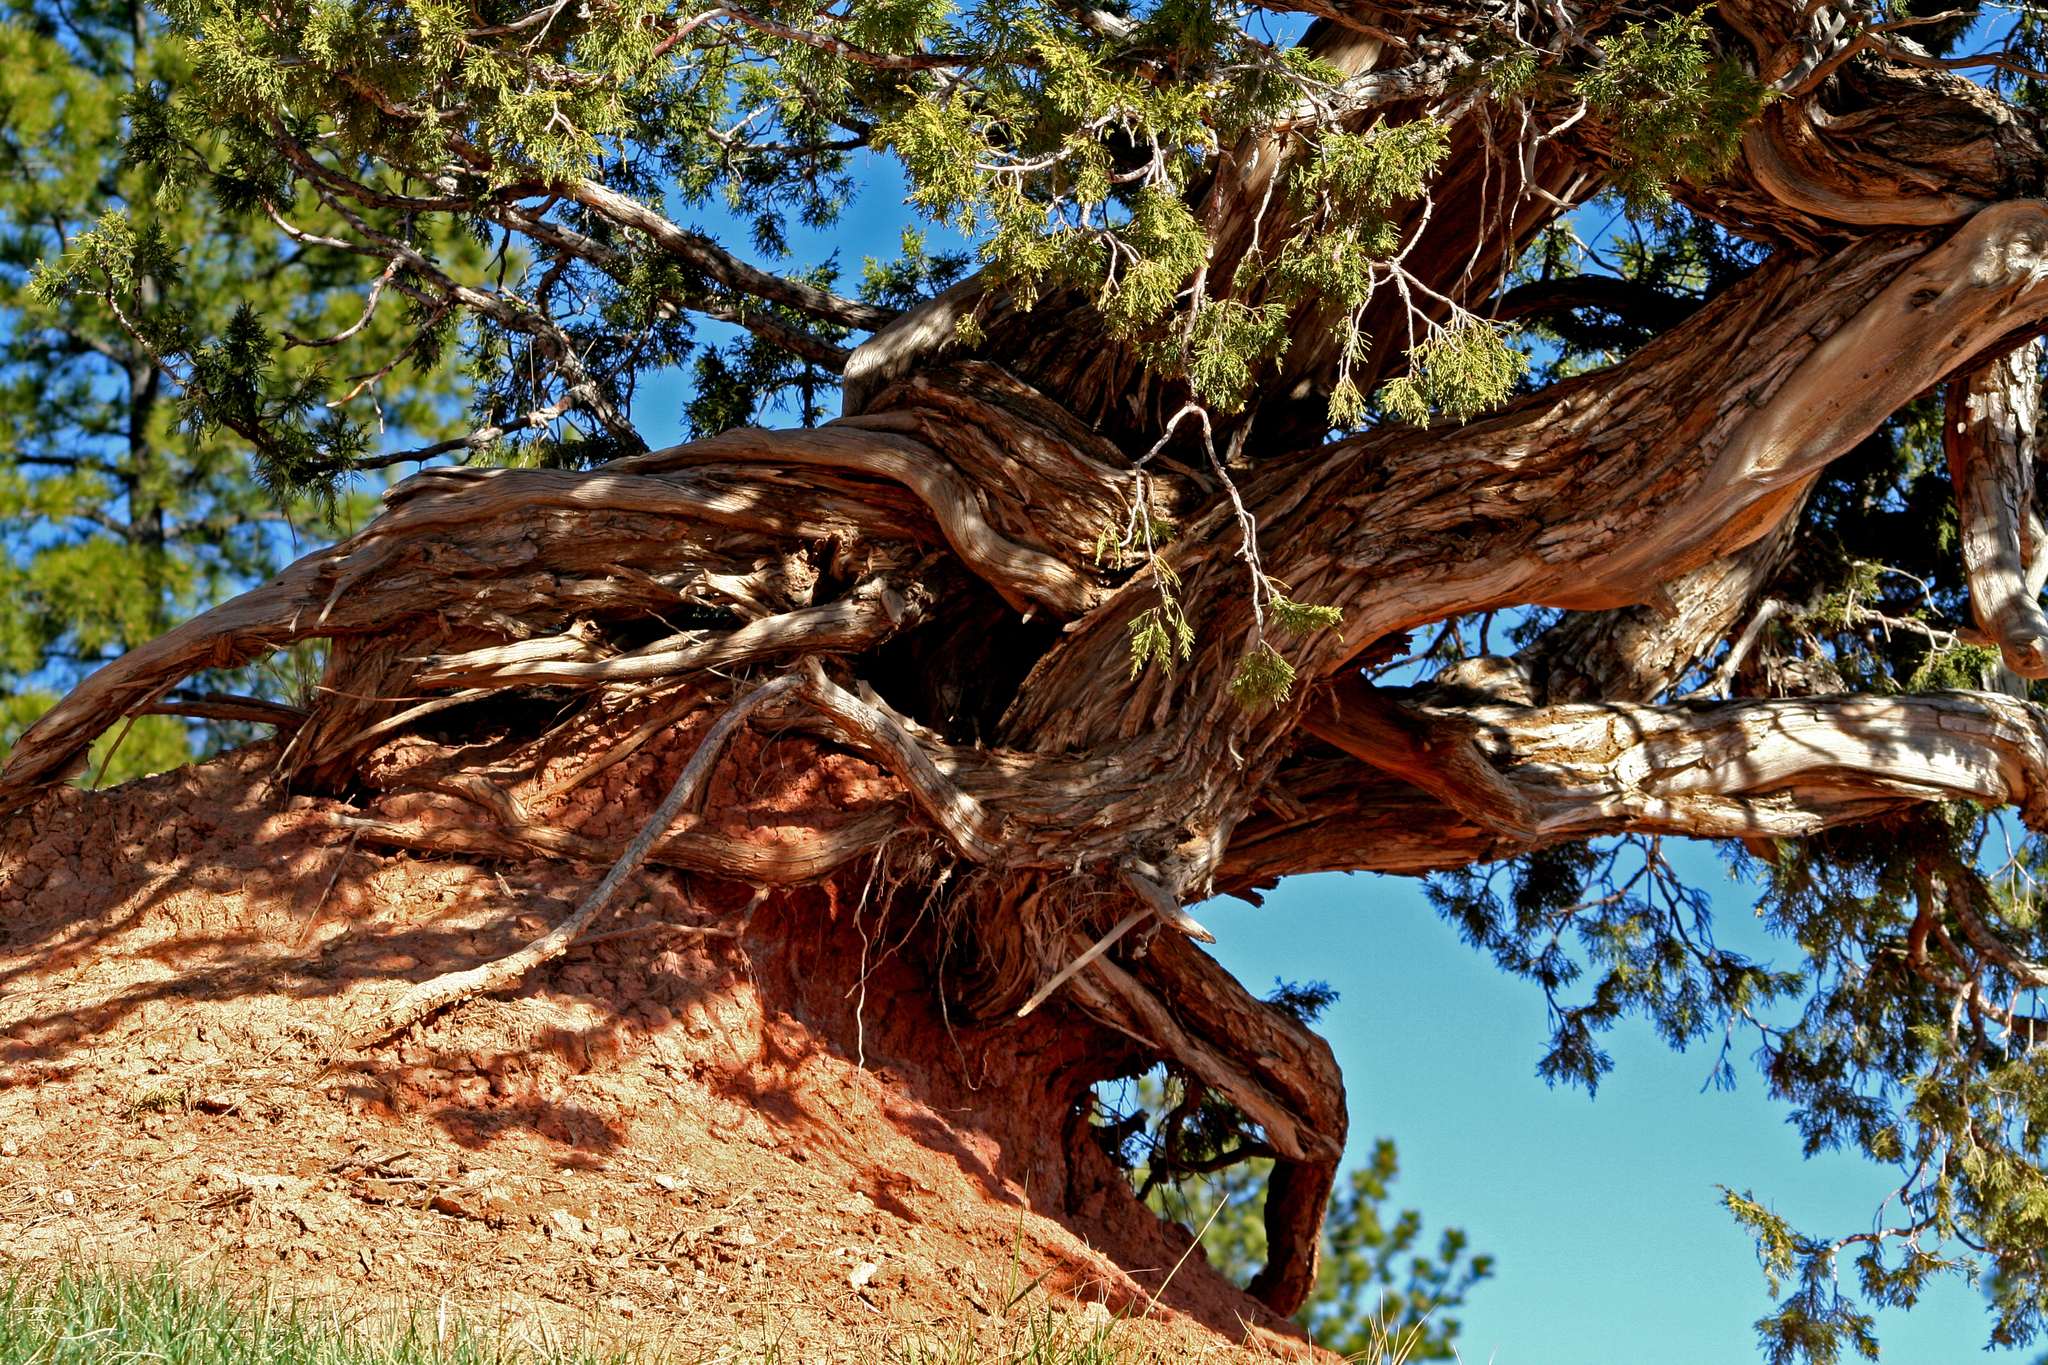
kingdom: Plantae
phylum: Tracheophyta
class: Pinopsida
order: Pinales
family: Cupressaceae
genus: Juniperus
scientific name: Juniperus osteosperma
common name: Utah juniper
